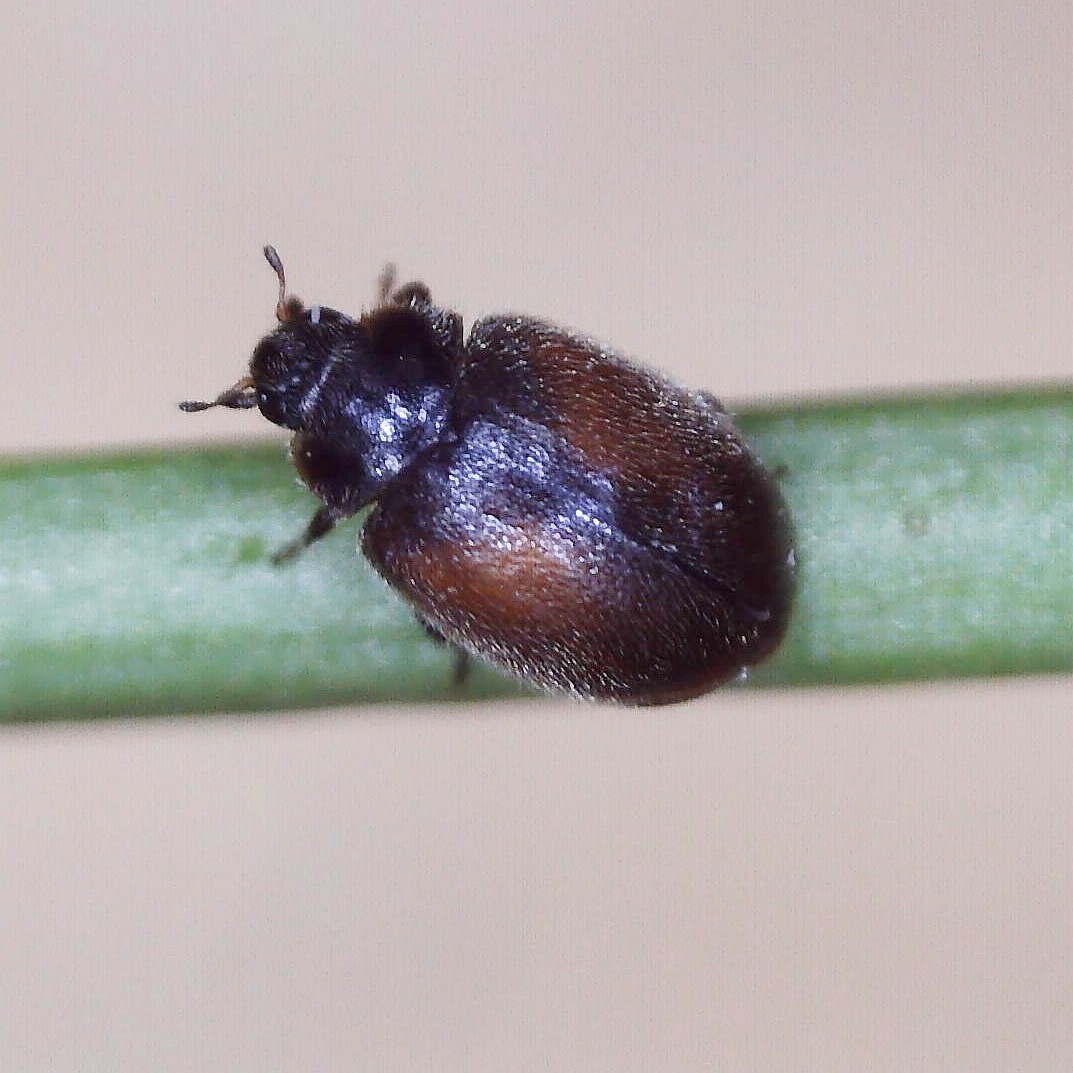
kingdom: Animalia
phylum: Arthropoda
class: Insecta
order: Coleoptera
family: Coccinellidae
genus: Scymnus
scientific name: Scymnus suturalis
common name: Ladybird beetle
